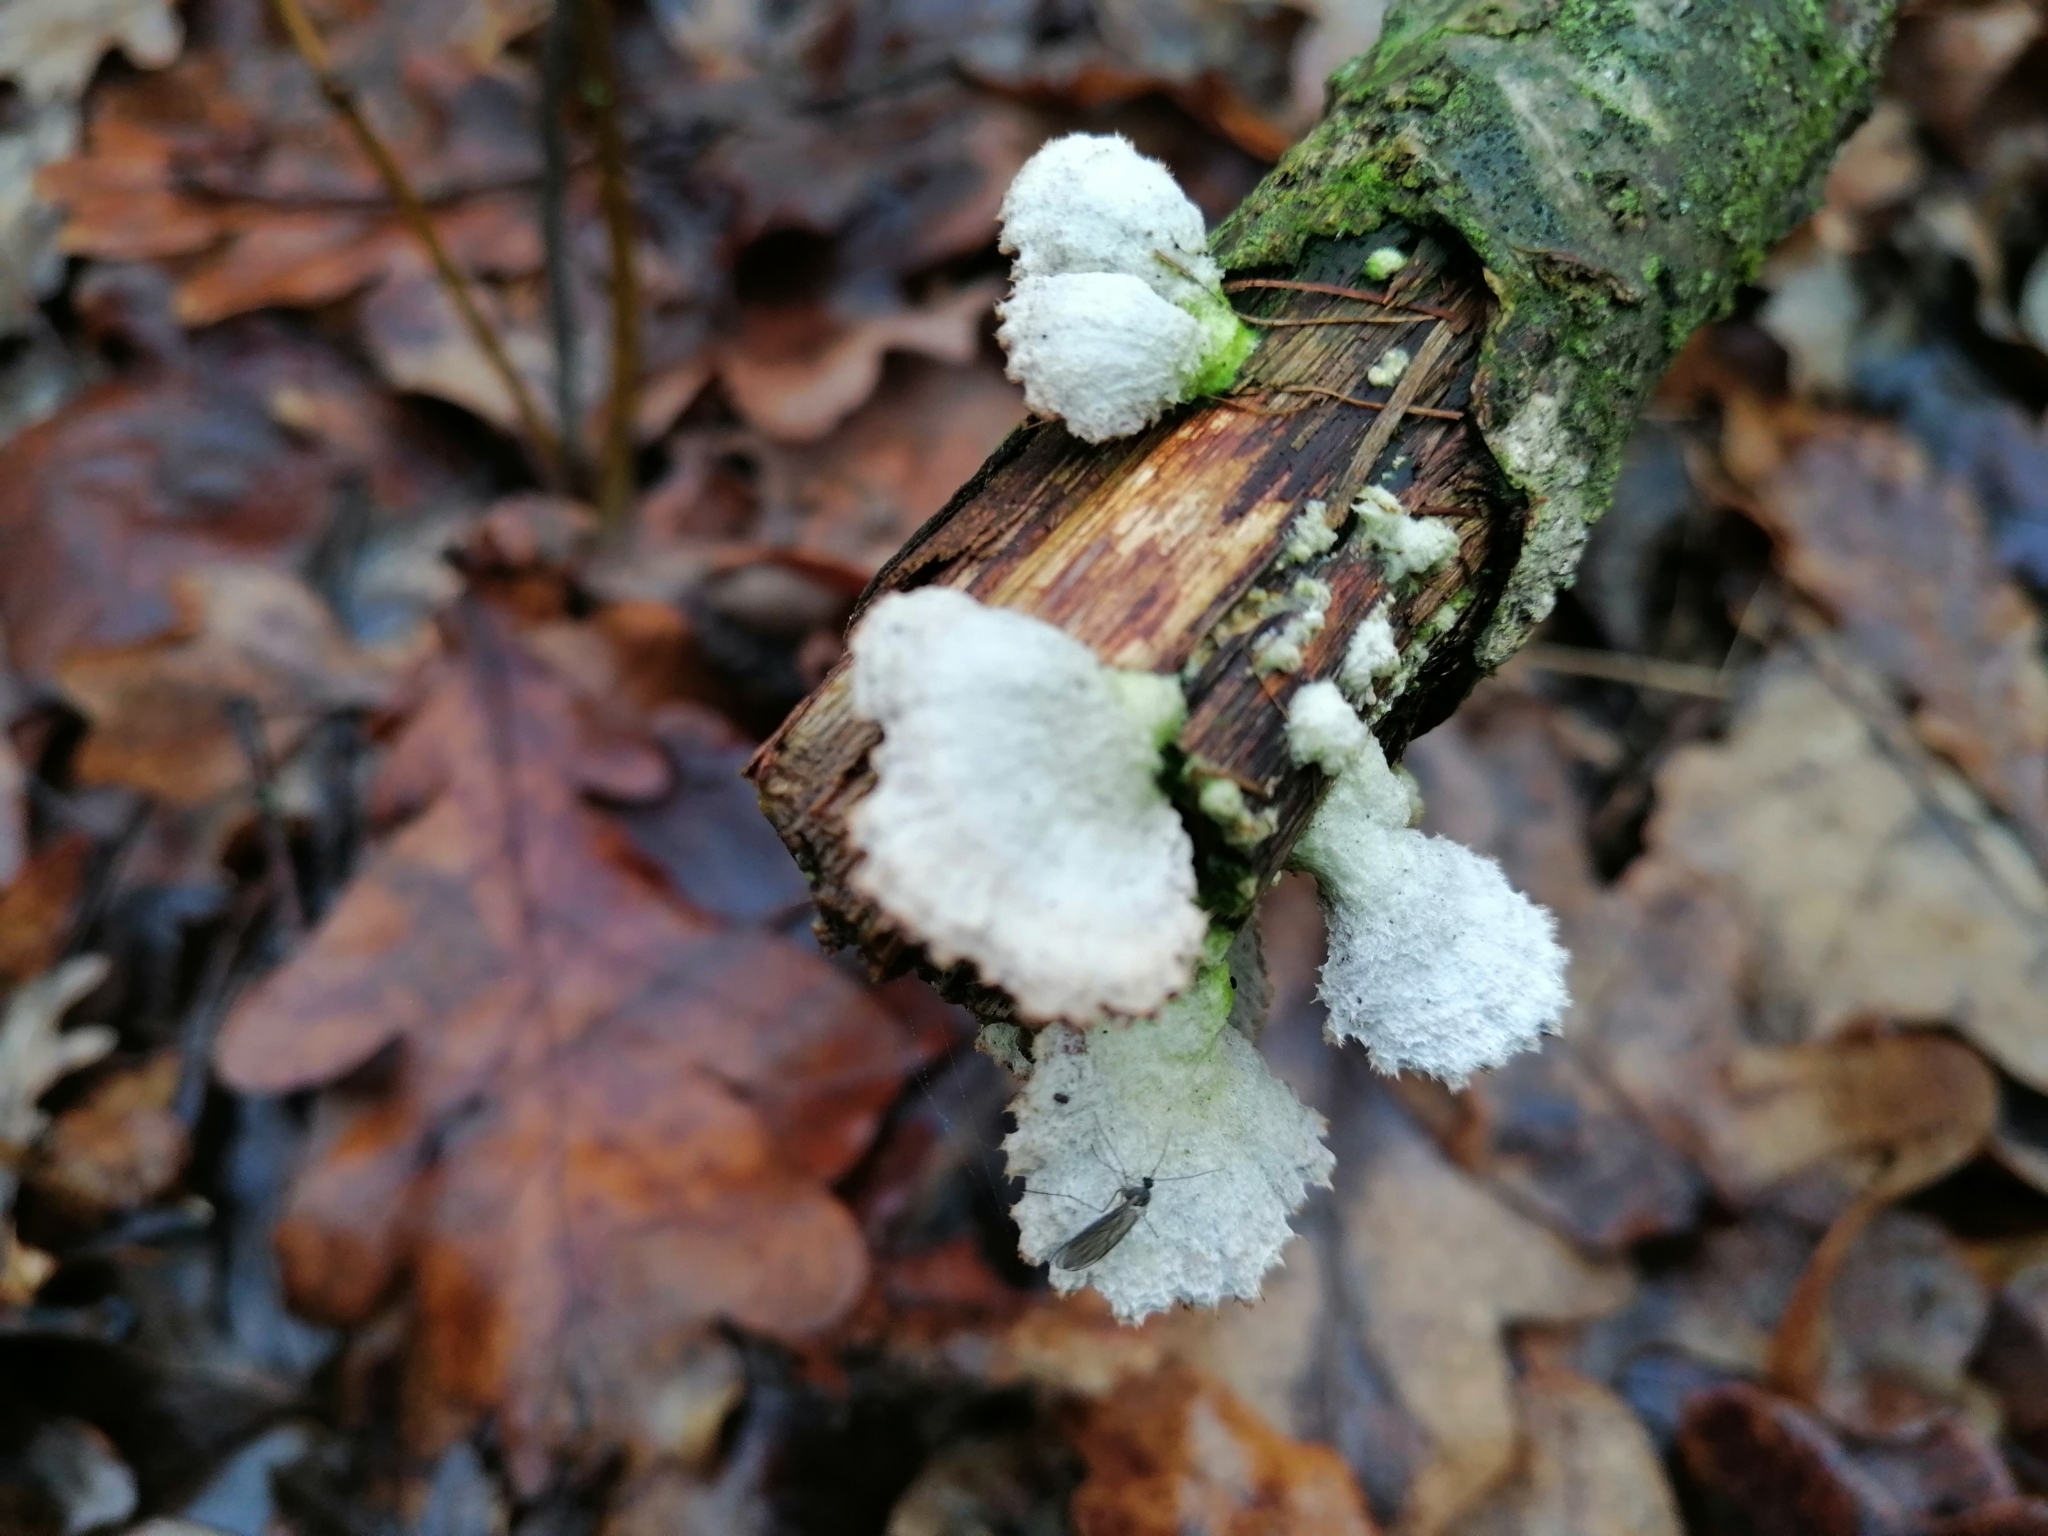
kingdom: Fungi
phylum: Basidiomycota
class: Agaricomycetes
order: Agaricales
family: Schizophyllaceae
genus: Schizophyllum
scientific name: Schizophyllum commune
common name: Common porecrust
